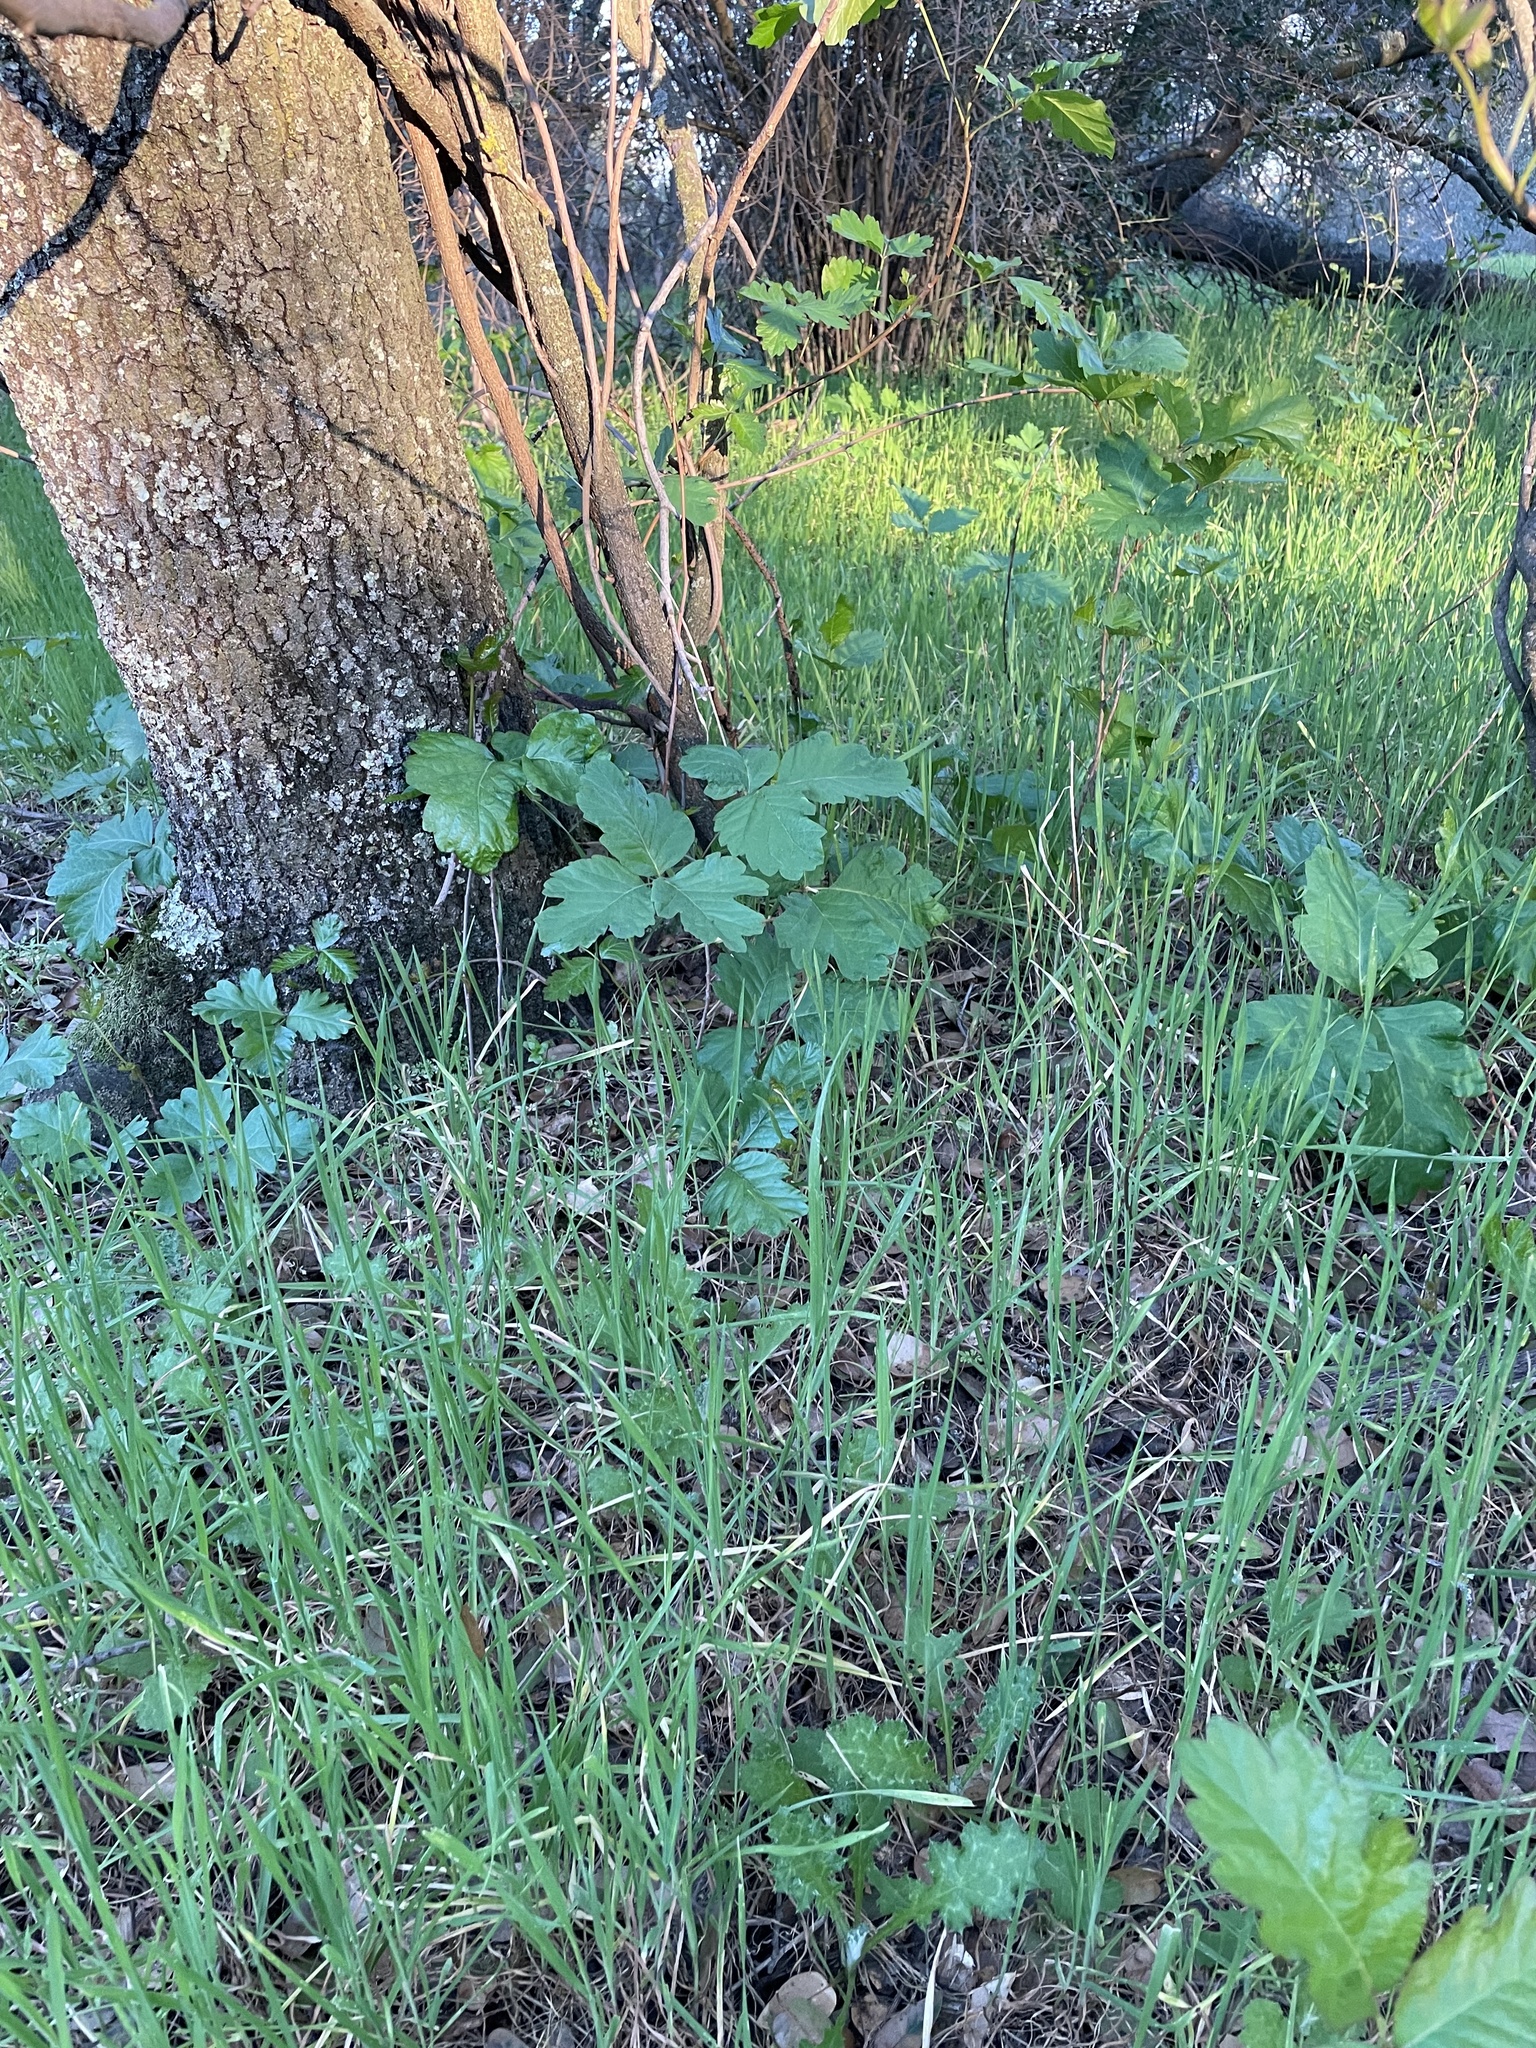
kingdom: Plantae
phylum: Tracheophyta
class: Magnoliopsida
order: Sapindales
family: Anacardiaceae
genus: Toxicodendron
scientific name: Toxicodendron diversilobum
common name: Pacific poison-oak
